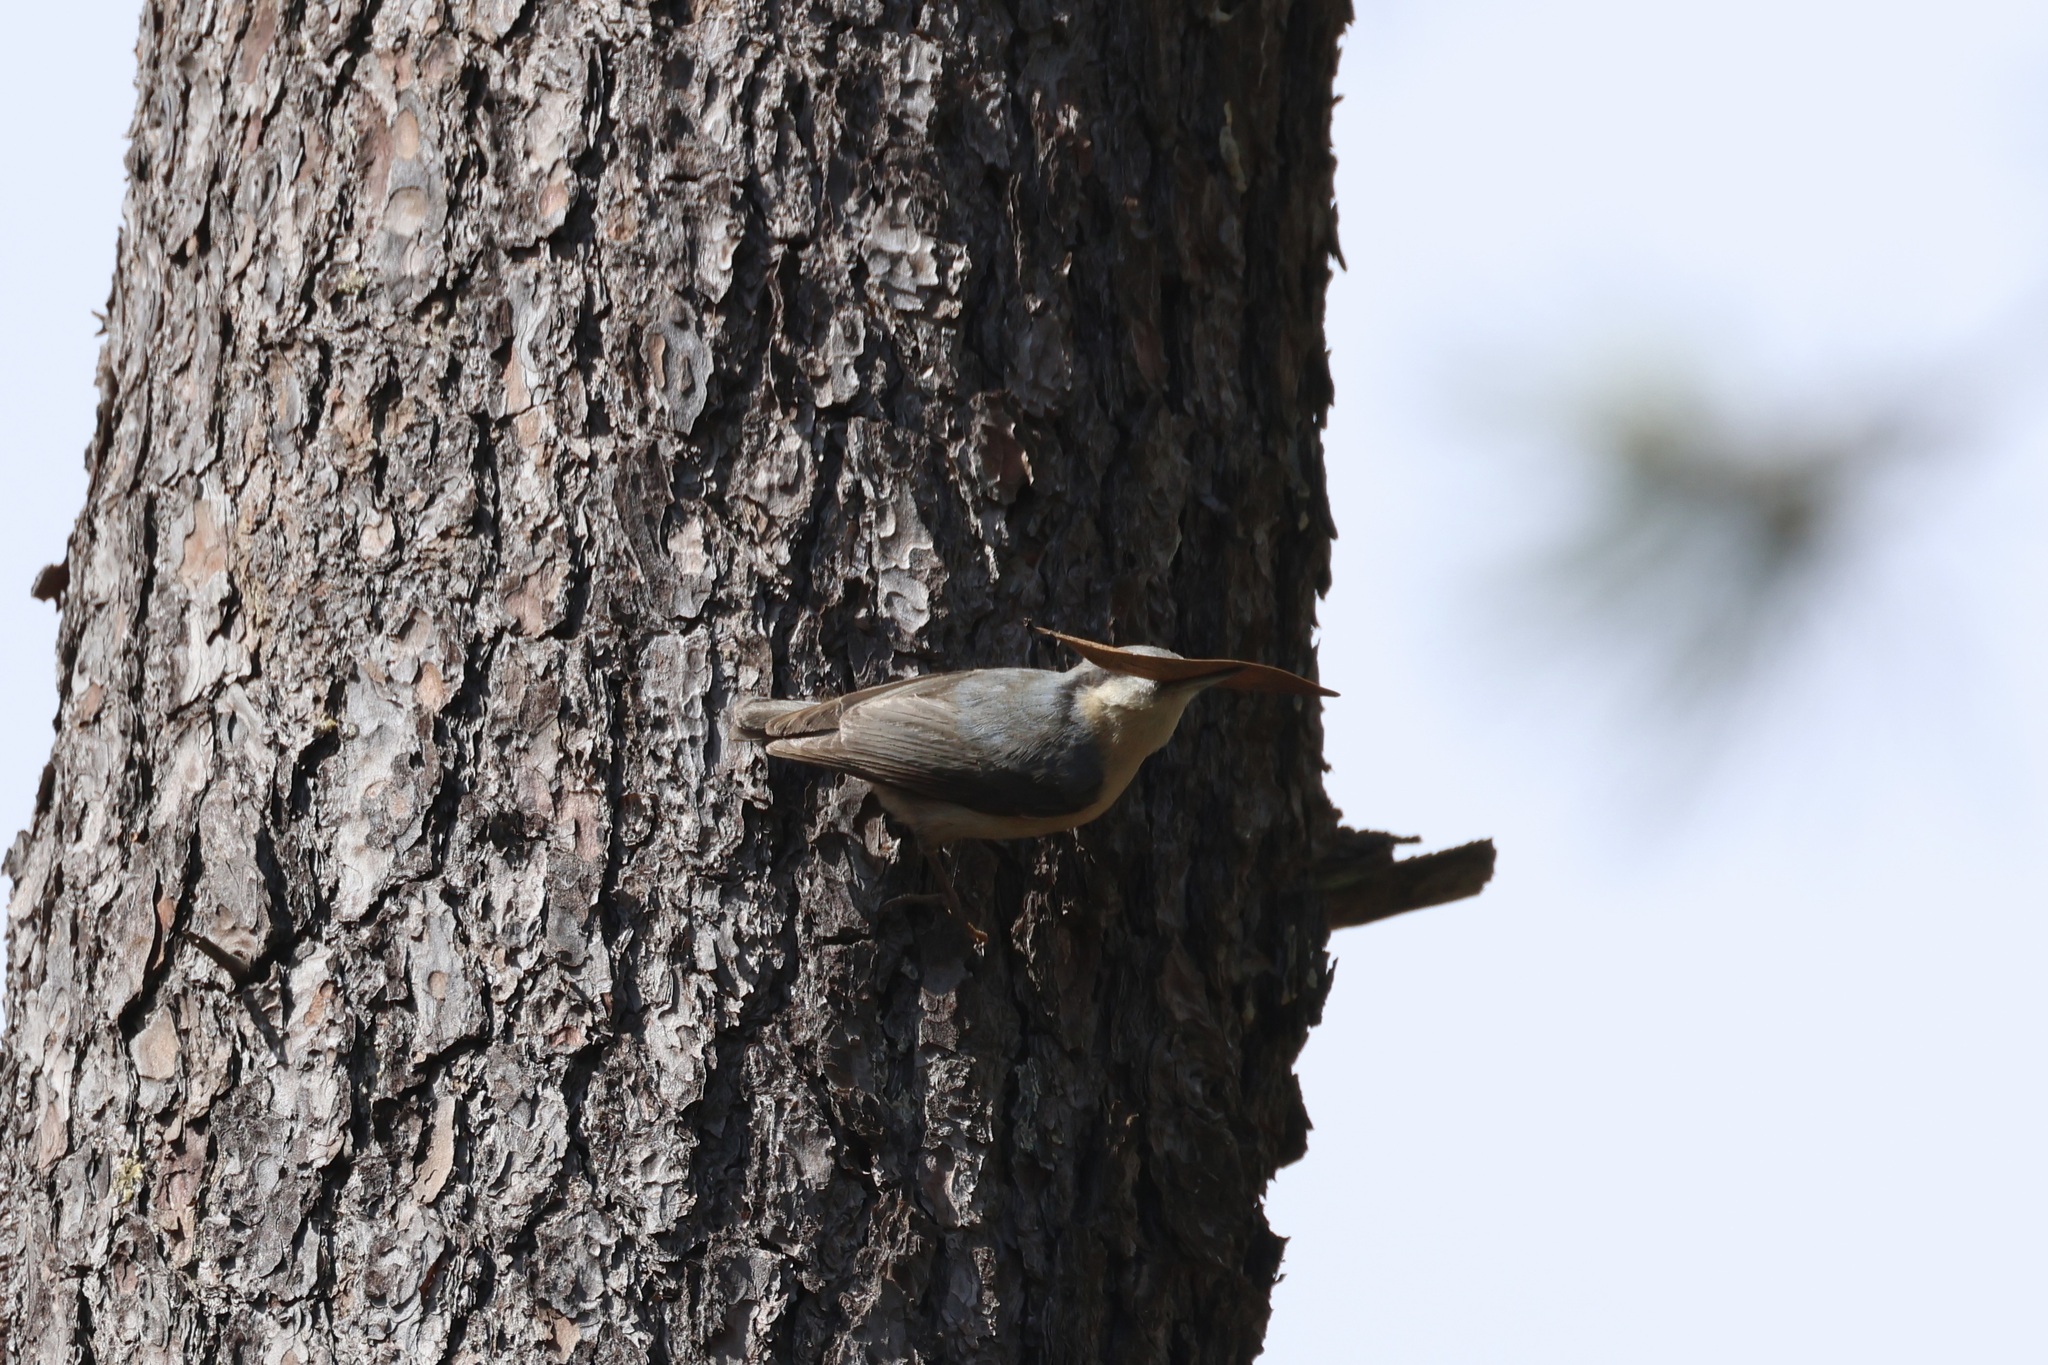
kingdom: Animalia
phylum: Chordata
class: Aves
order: Passeriformes
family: Sittidae
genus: Sitta
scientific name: Sitta europaea
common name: Eurasian nuthatch
